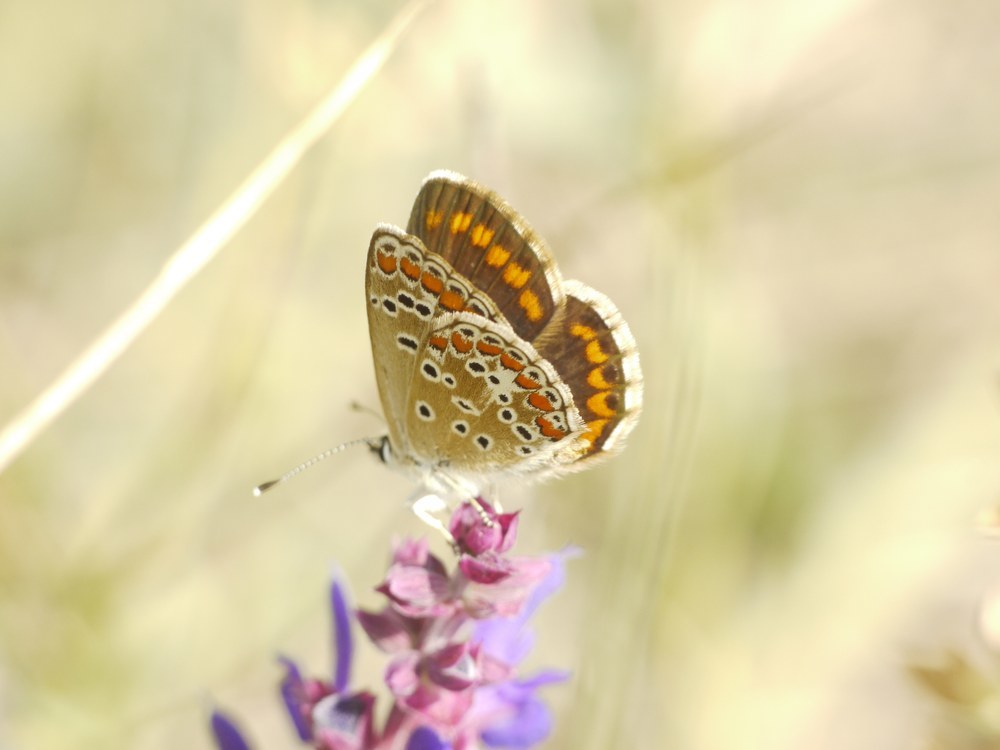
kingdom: Animalia
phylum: Arthropoda
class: Insecta
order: Lepidoptera
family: Lycaenidae
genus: Aricia
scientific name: Aricia agestis
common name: Brown argus
